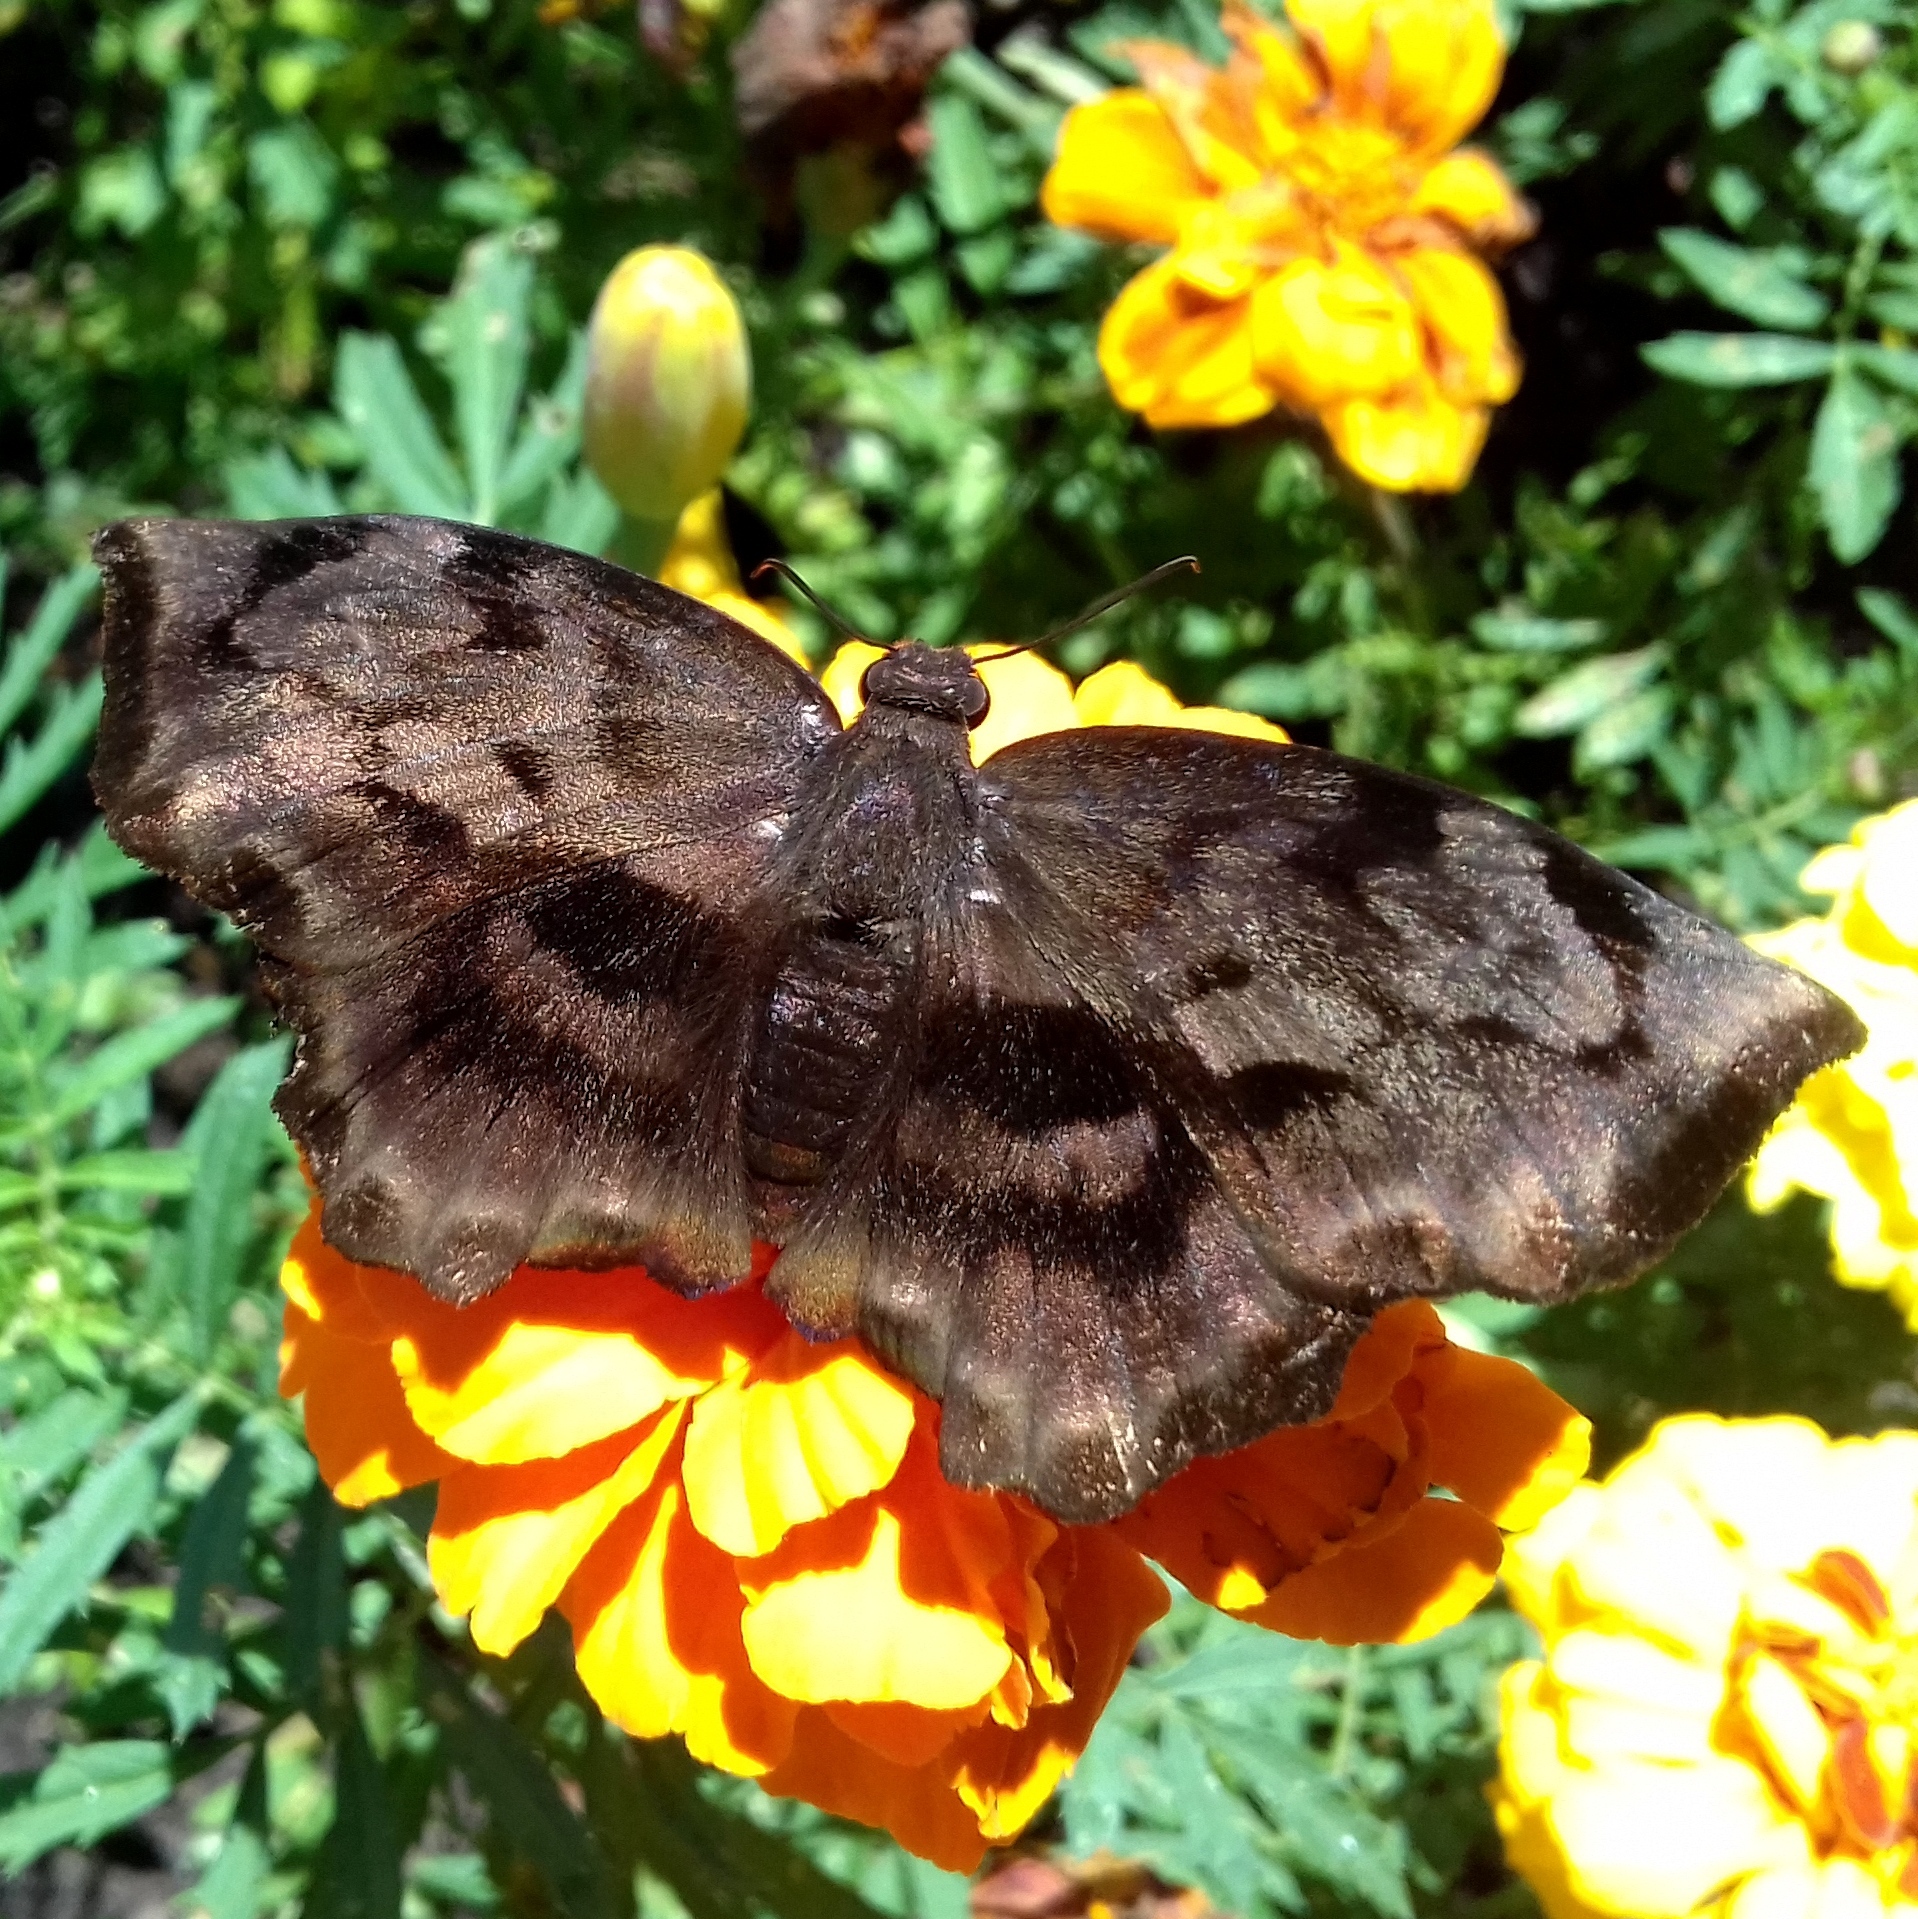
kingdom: Animalia
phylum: Arthropoda
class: Insecta
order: Lepidoptera
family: Hesperiidae
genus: Achlyodes
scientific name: Achlyodes busirus
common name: Giant sicklewing
